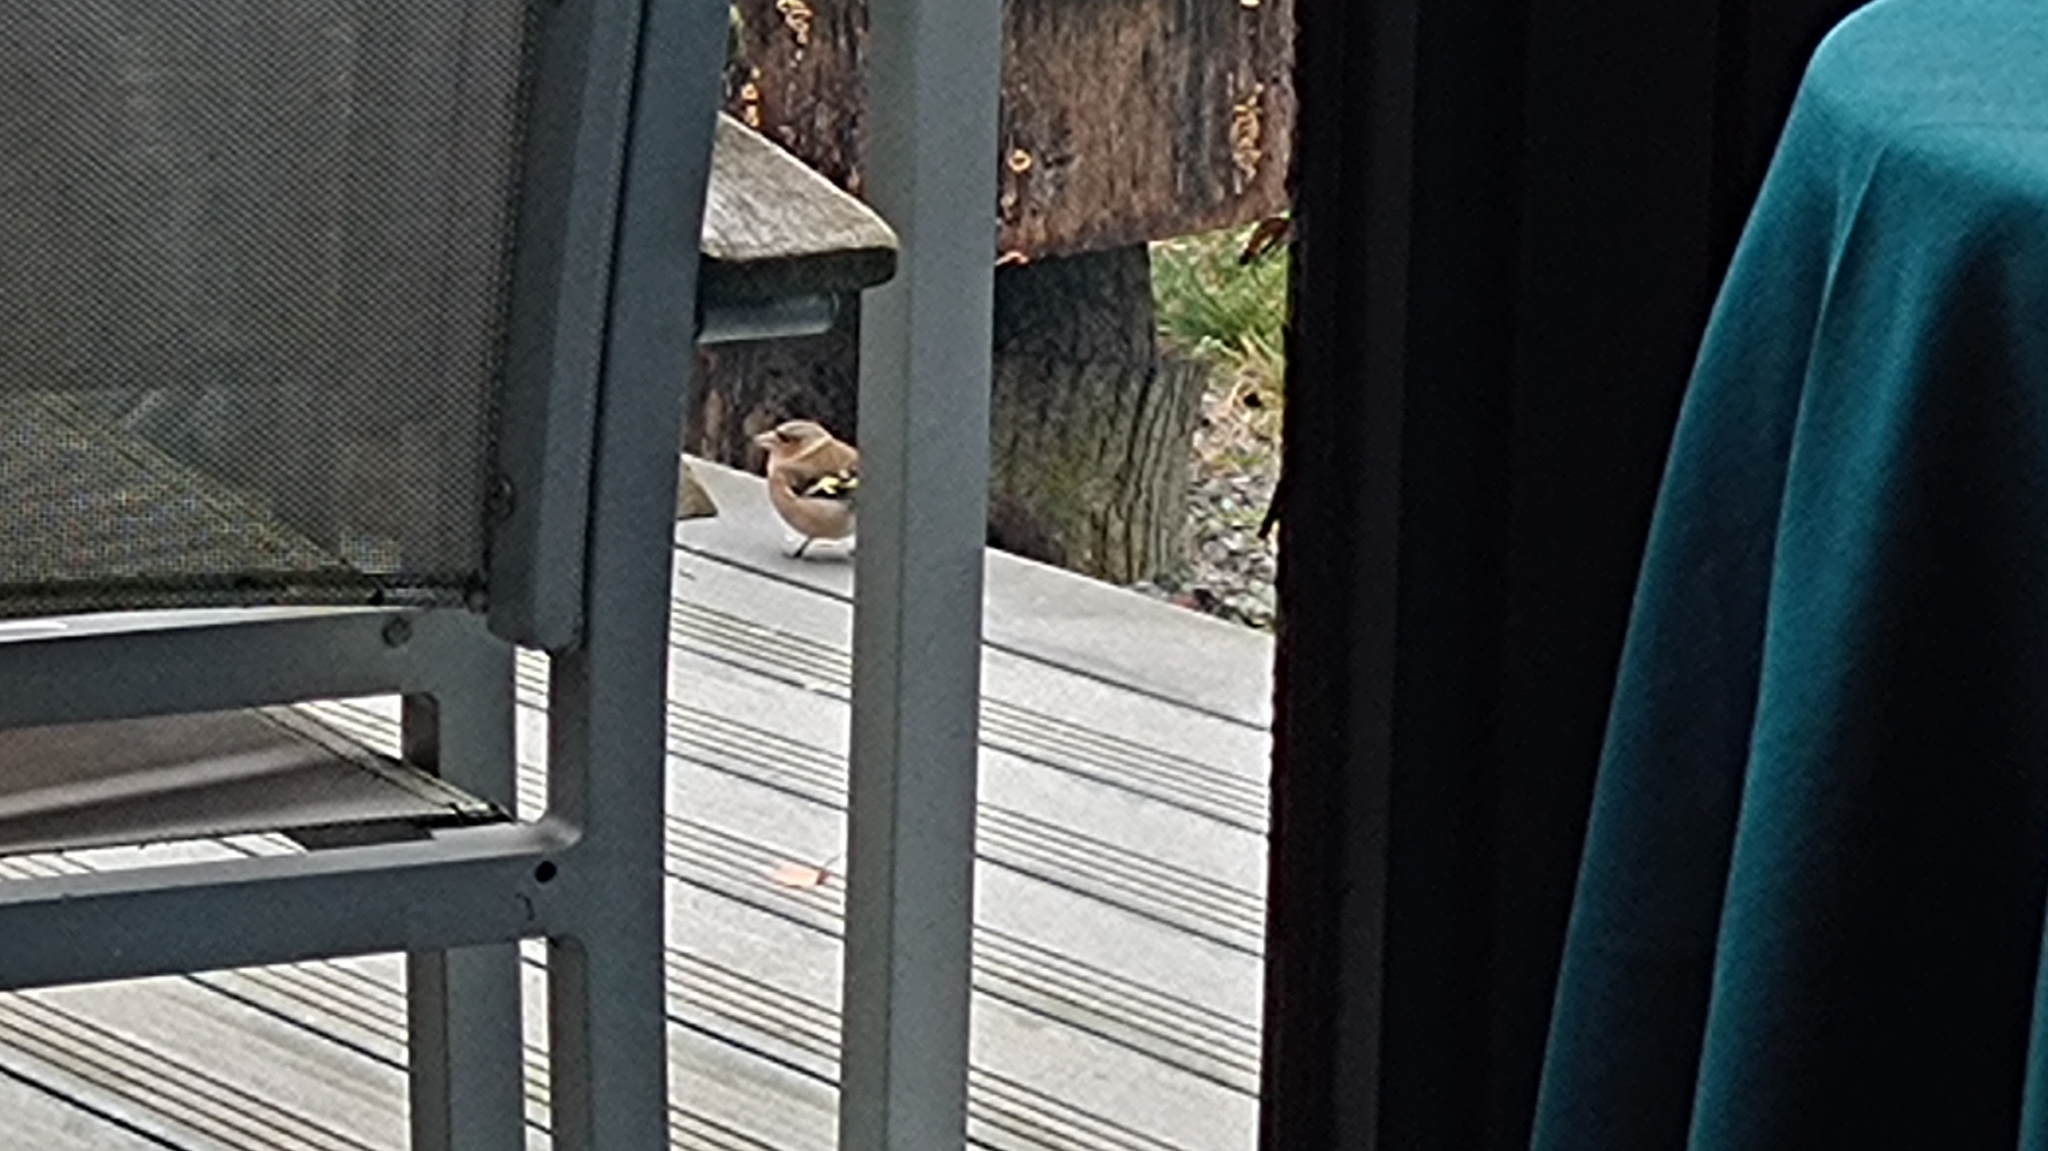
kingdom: Animalia
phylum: Chordata
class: Aves
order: Passeriformes
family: Fringillidae
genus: Fringilla
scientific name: Fringilla coelebs
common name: Common chaffinch
